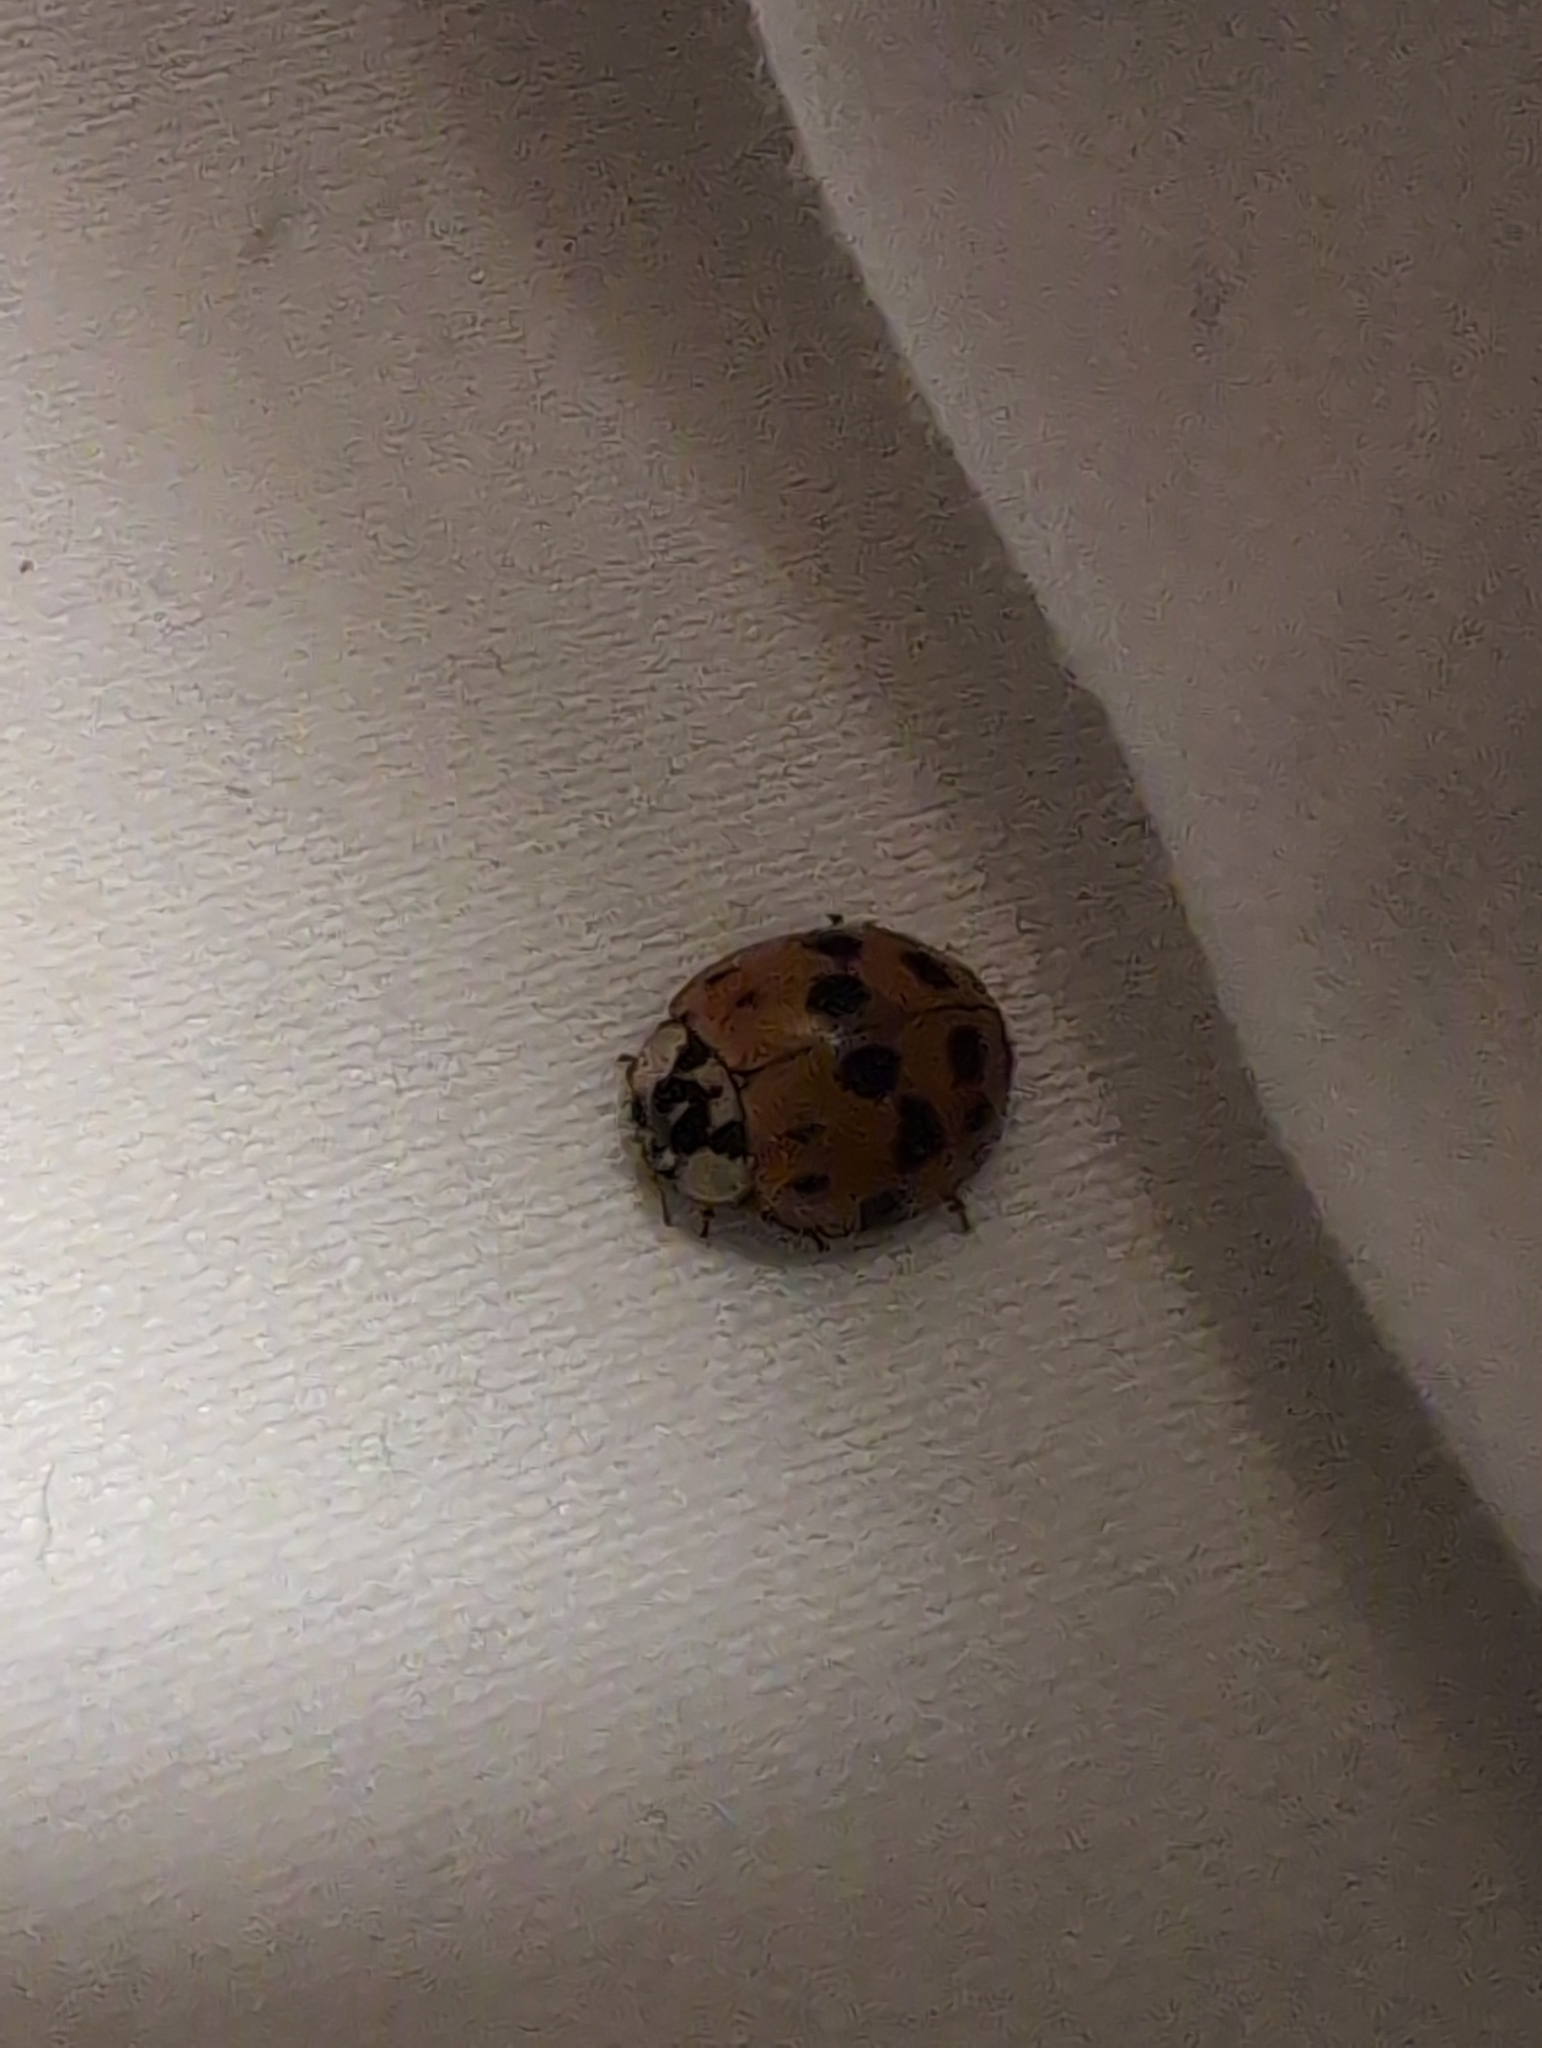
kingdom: Animalia
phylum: Arthropoda
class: Insecta
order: Coleoptera
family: Coccinellidae
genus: Harmonia
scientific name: Harmonia axyridis
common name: Harlequin ladybird
